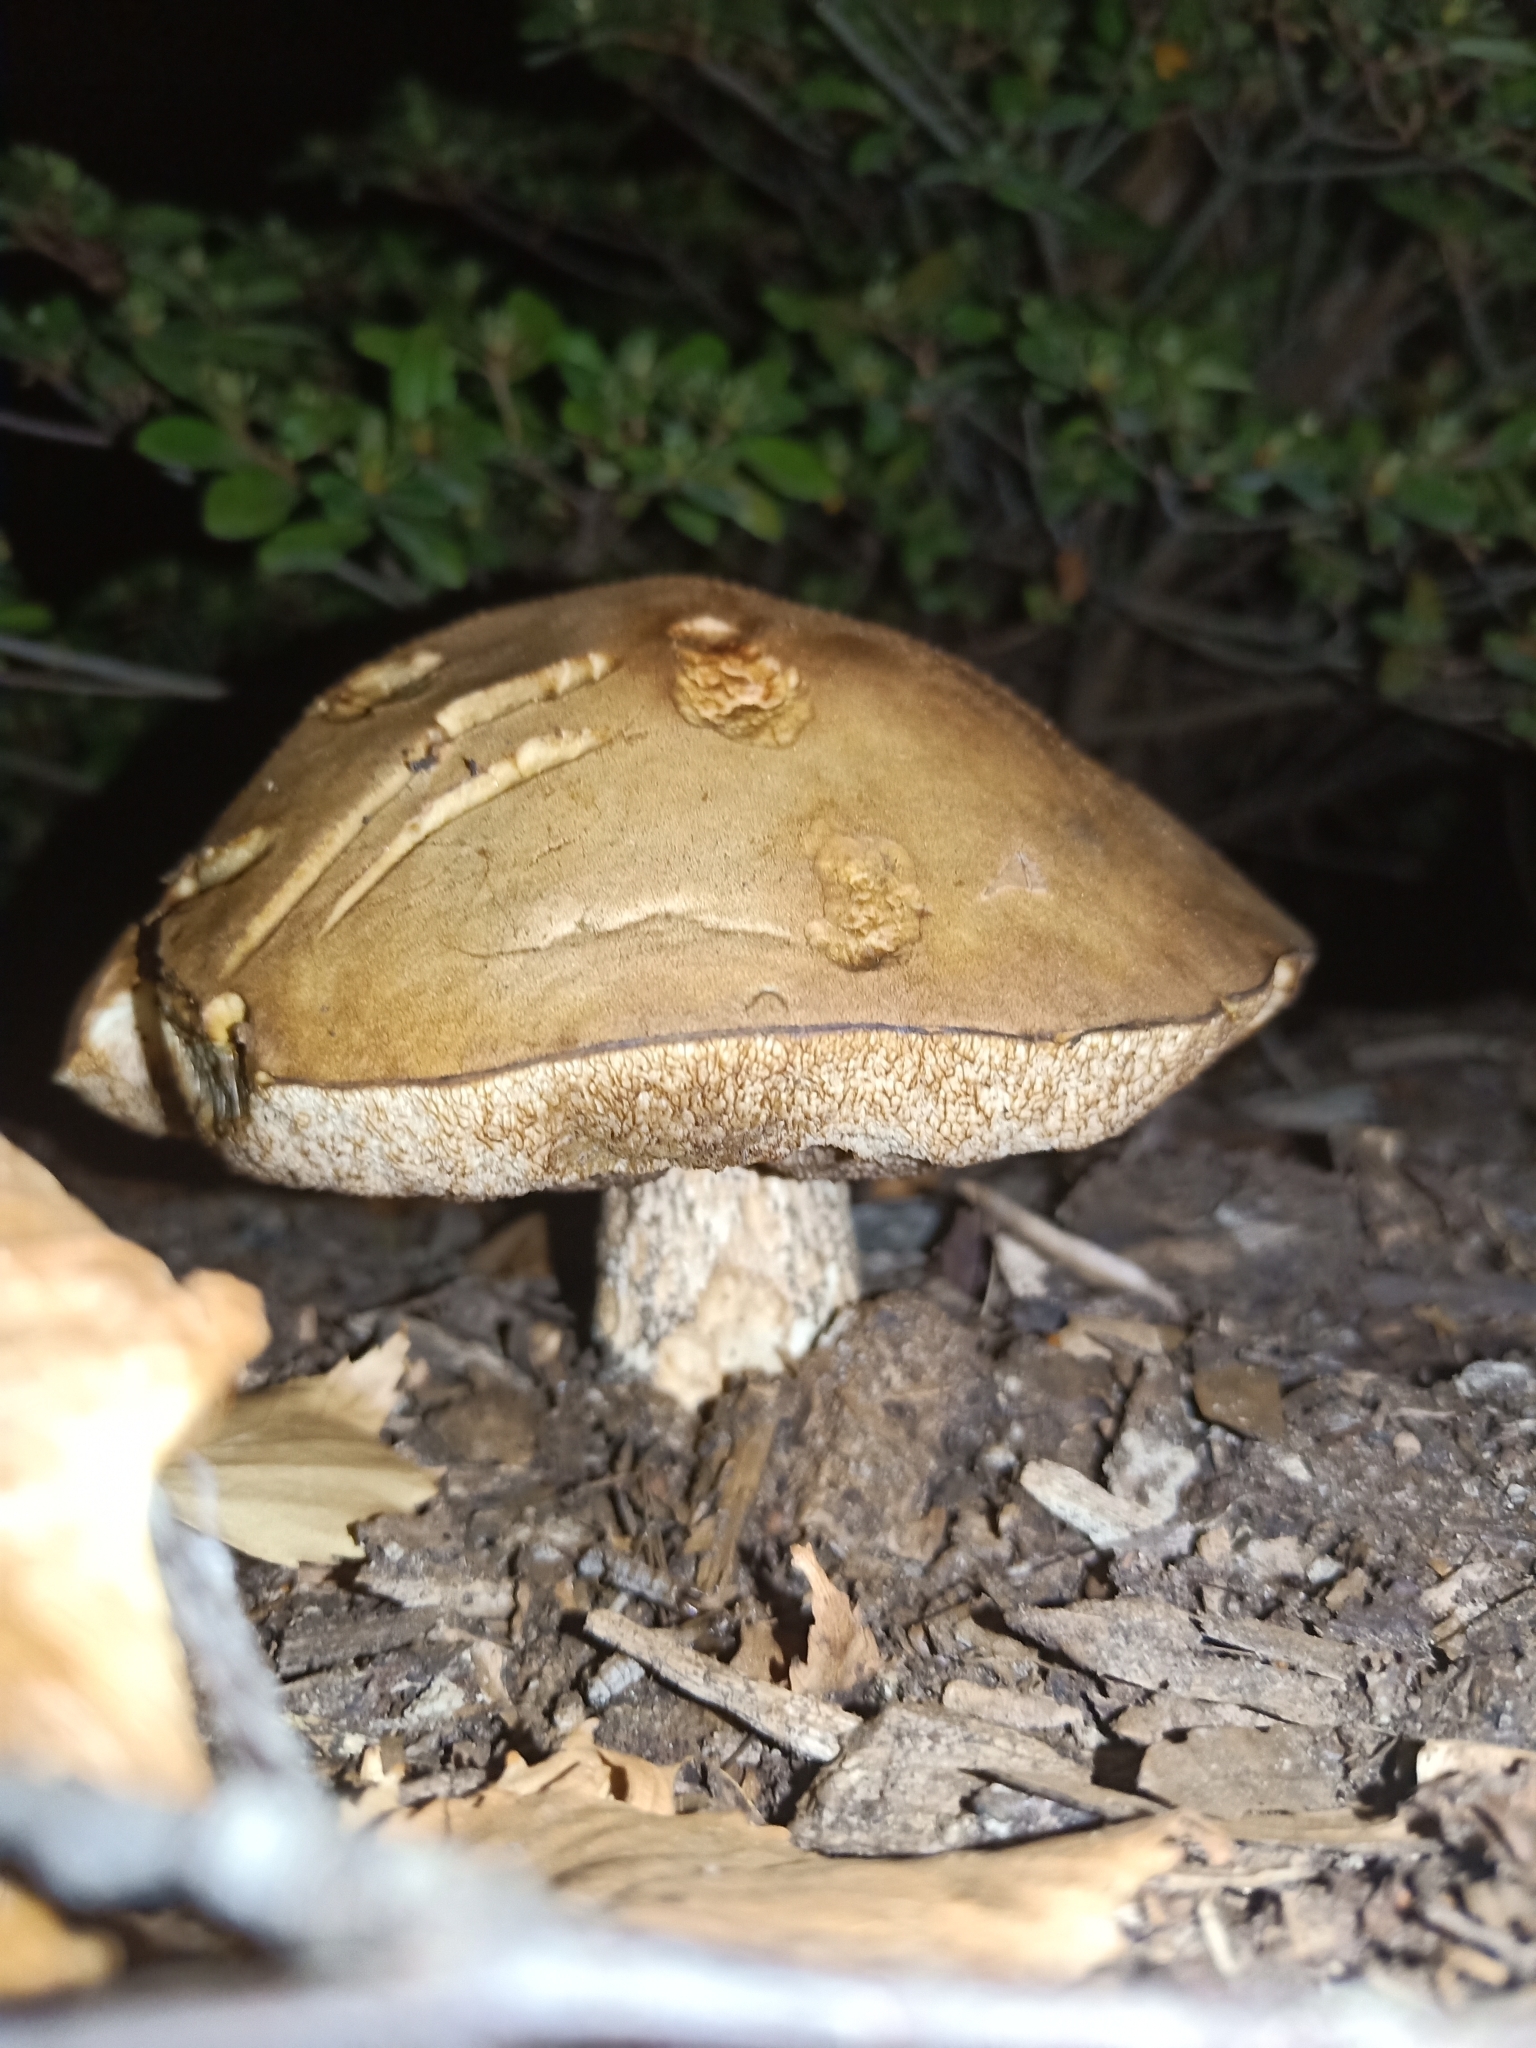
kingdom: Fungi
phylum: Basidiomycota
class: Agaricomycetes
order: Boletales
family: Boletaceae
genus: Leccinum
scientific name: Leccinum scabrum
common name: Blushing bolete
